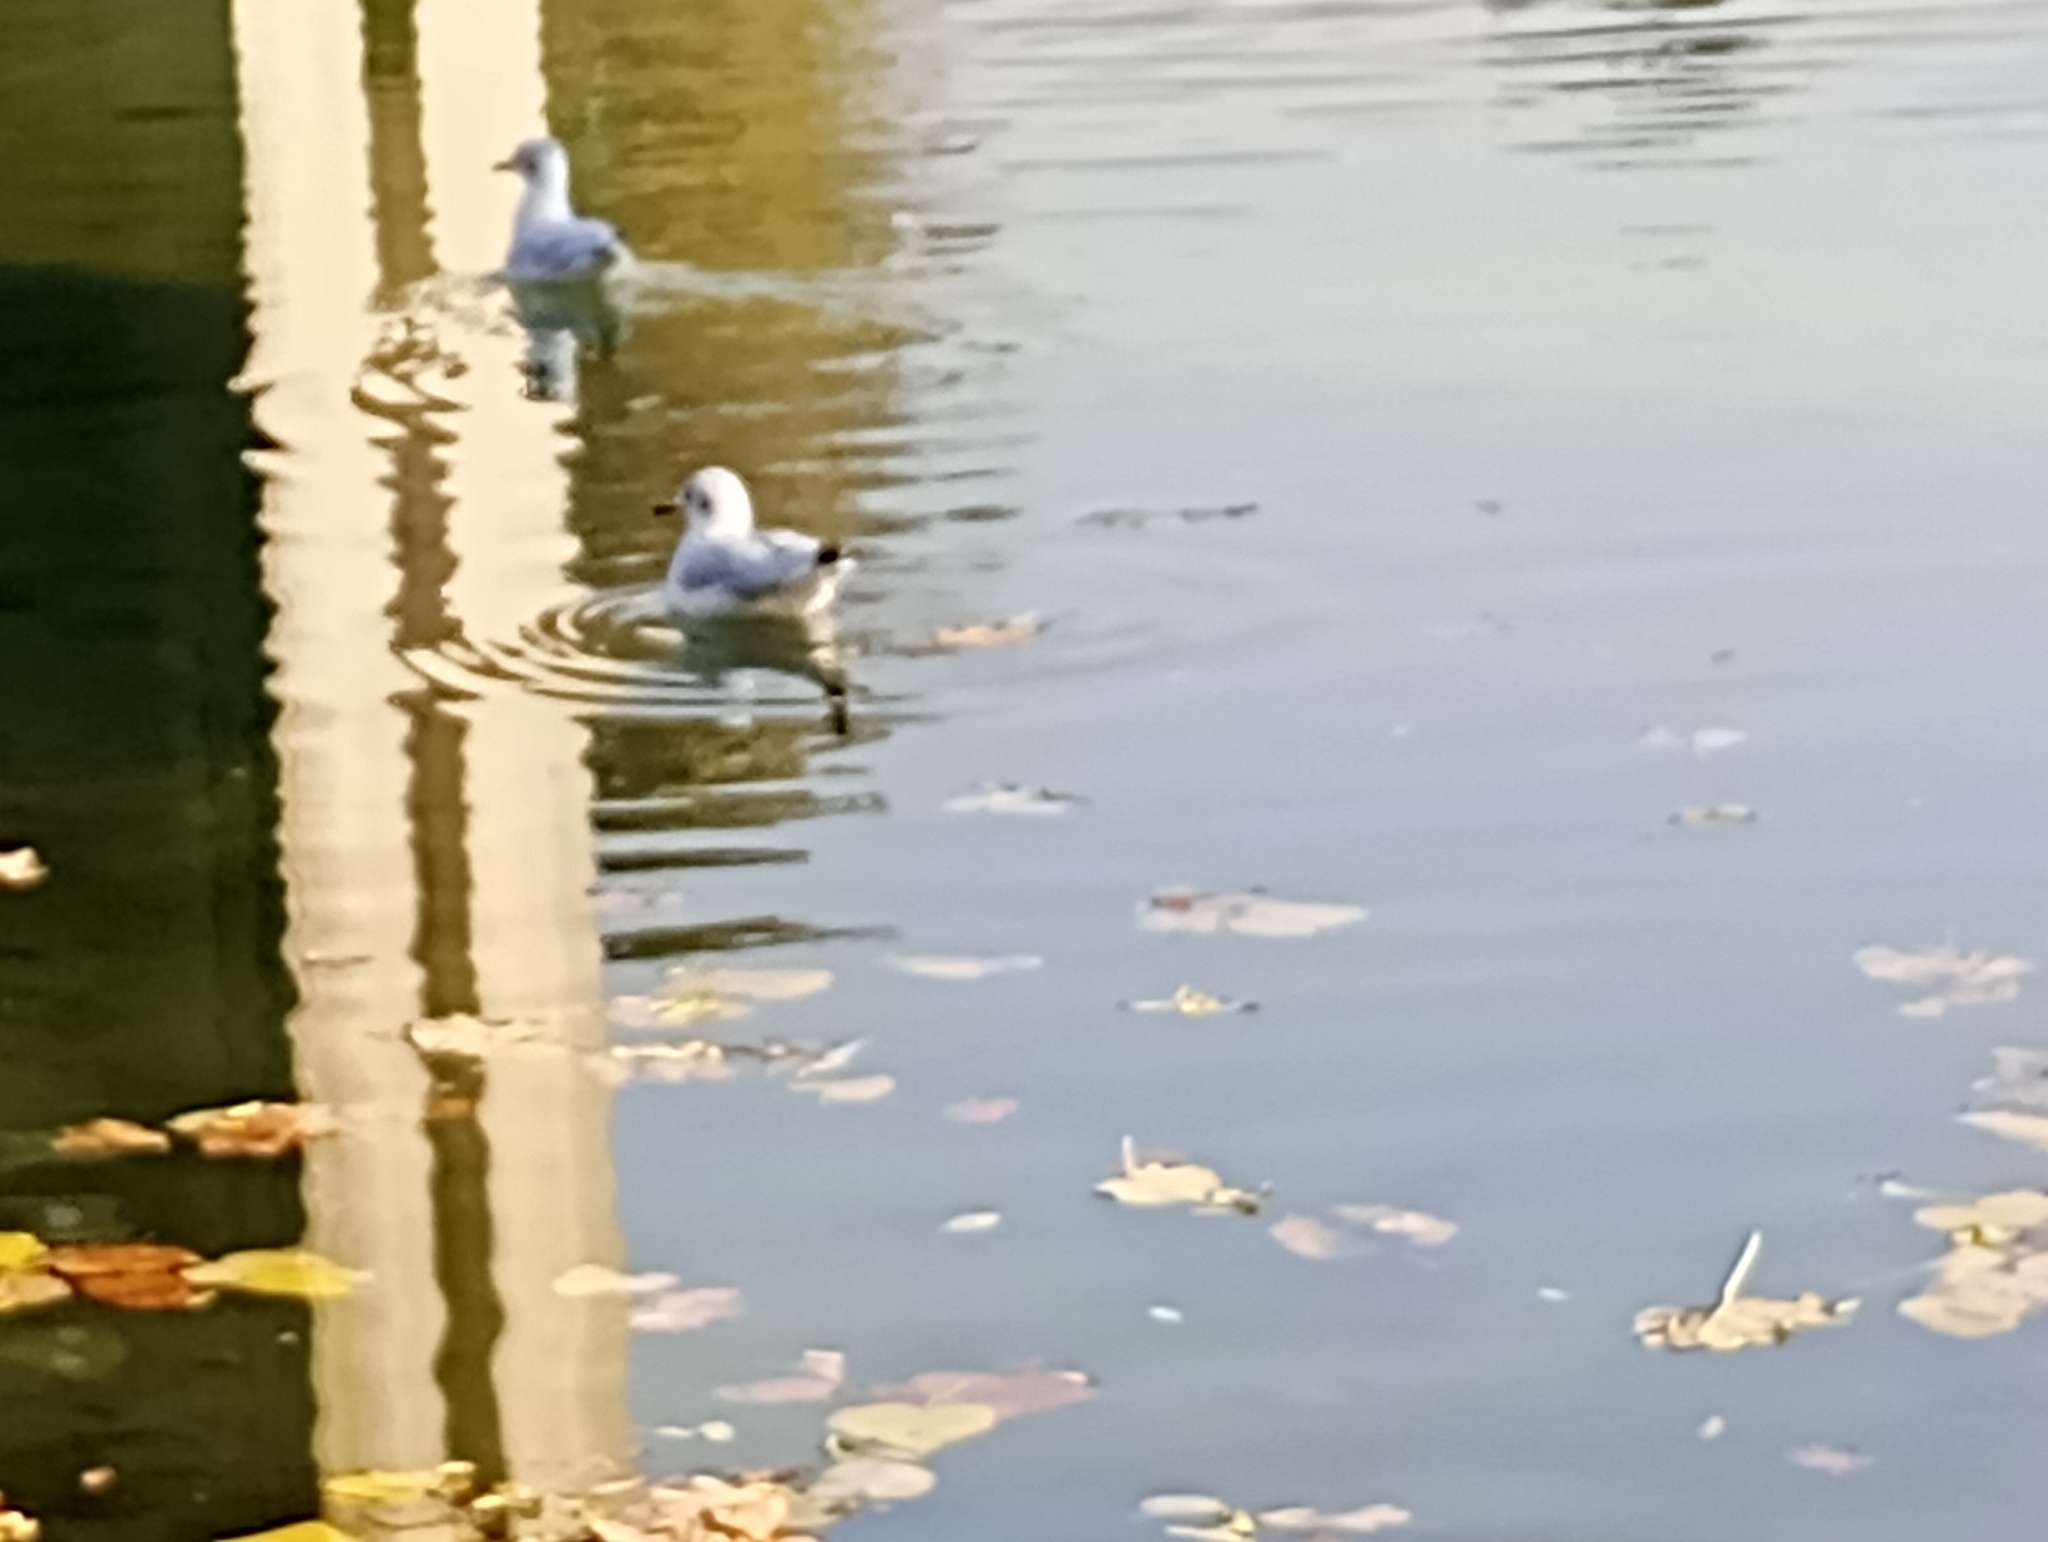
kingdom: Animalia
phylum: Chordata
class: Aves
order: Charadriiformes
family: Laridae
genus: Chroicocephalus
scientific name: Chroicocephalus ridibundus
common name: Black-headed gull
